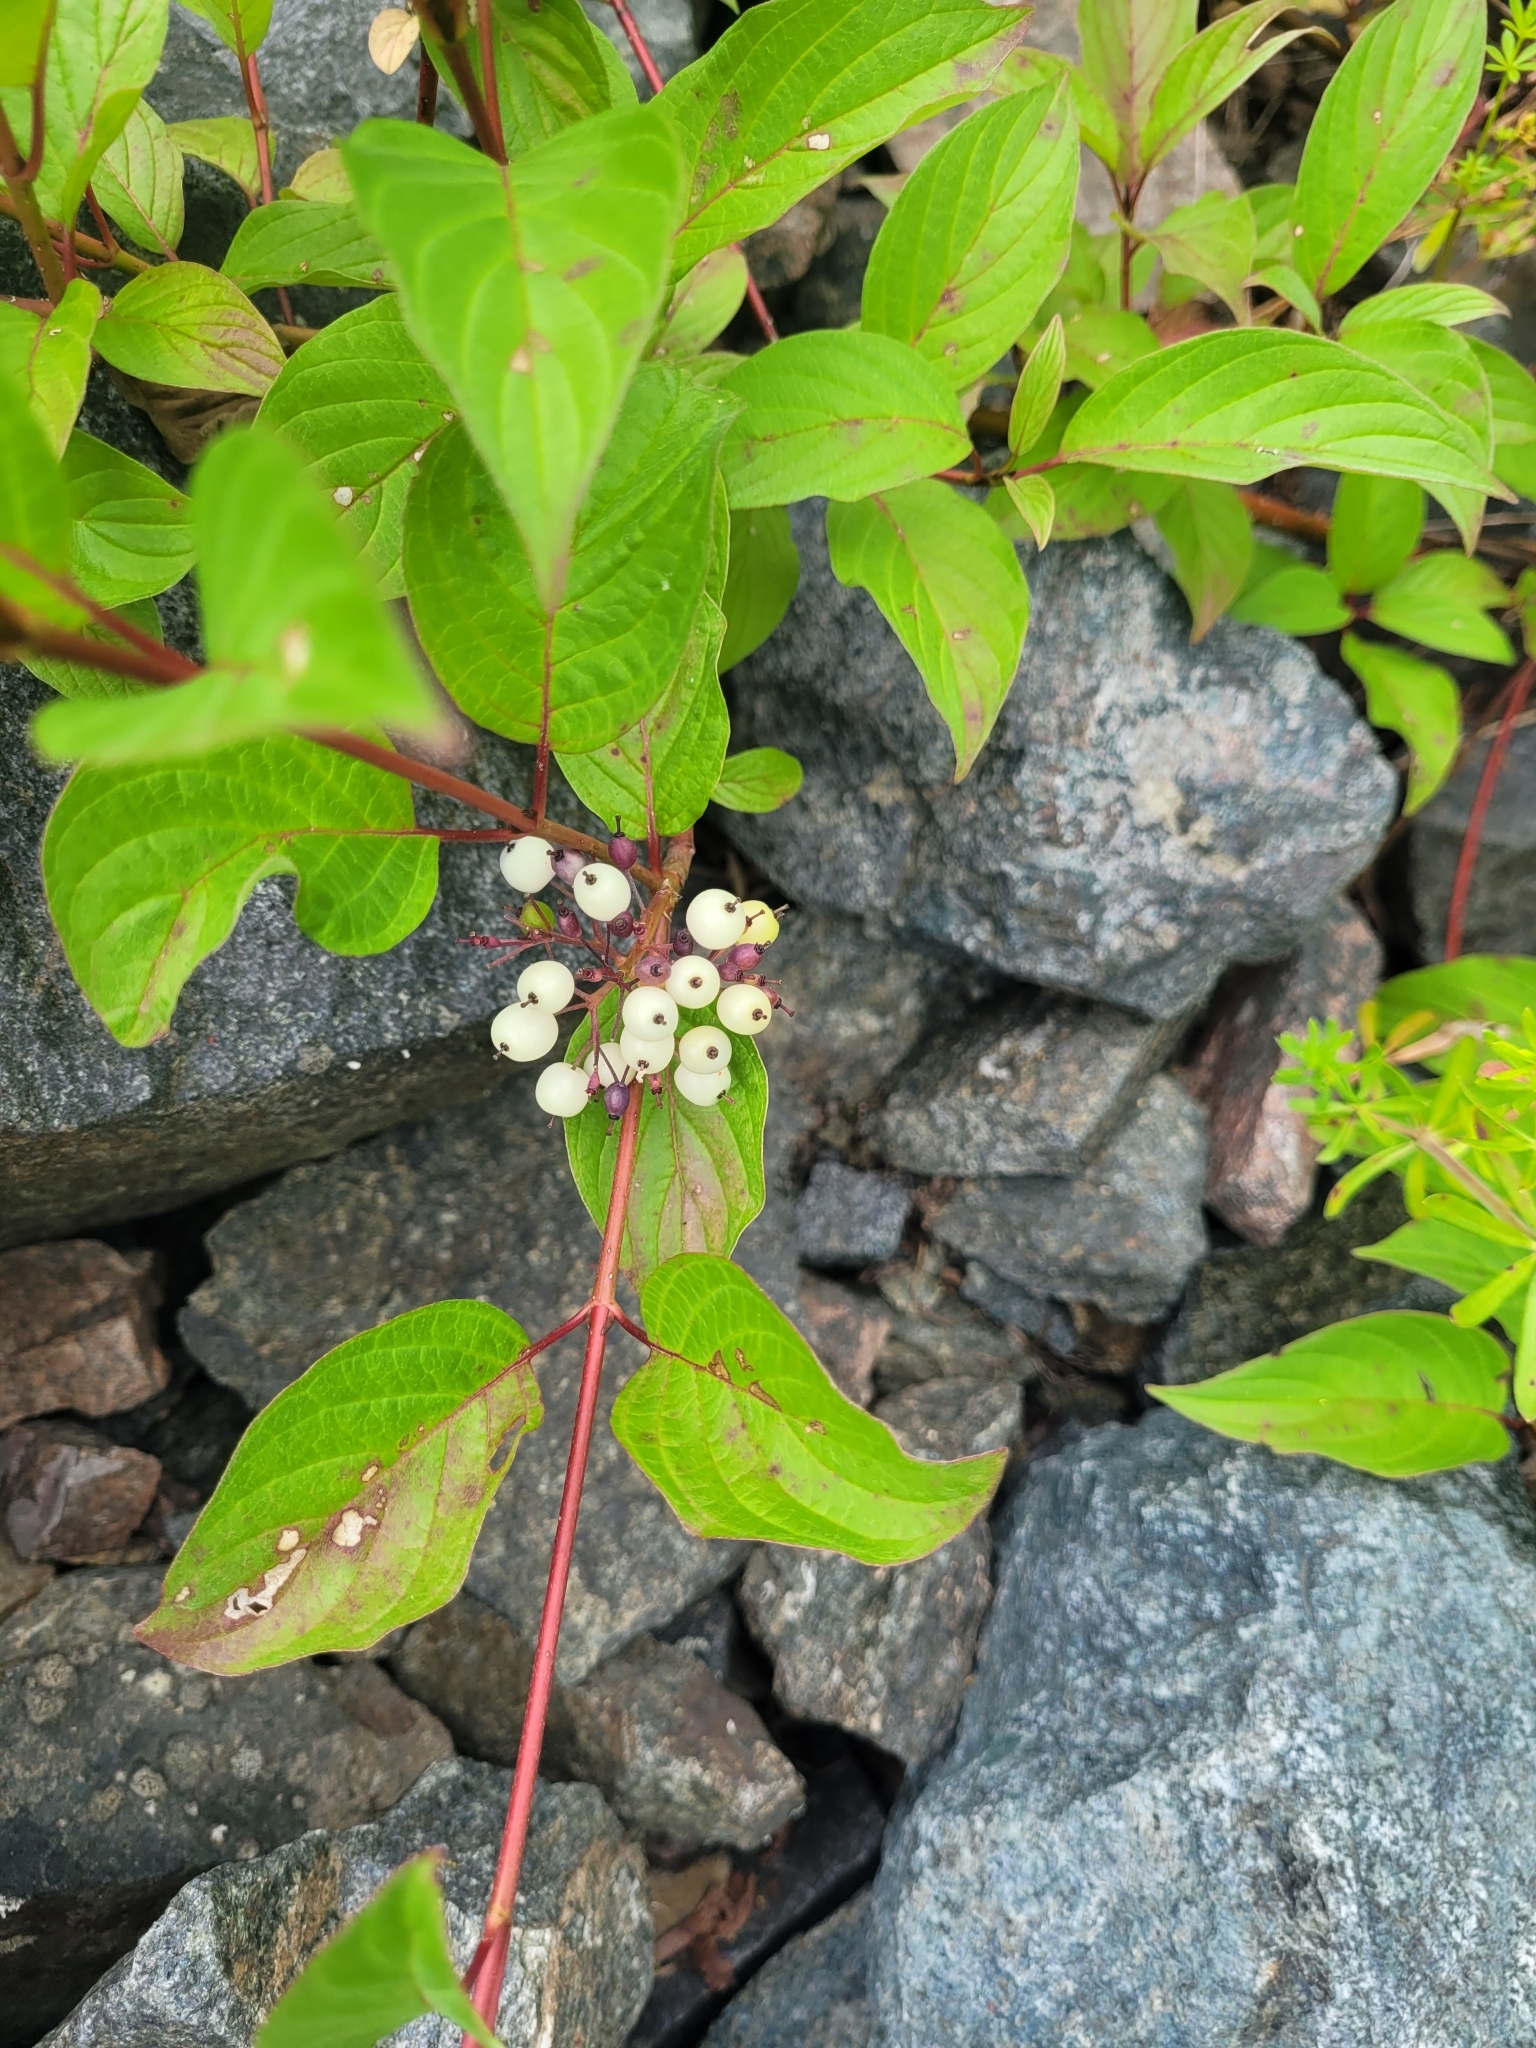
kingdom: Plantae
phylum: Tracheophyta
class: Magnoliopsida
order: Cornales
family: Cornaceae
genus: Cornus
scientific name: Cornus sericea
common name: Red-osier dogwood
